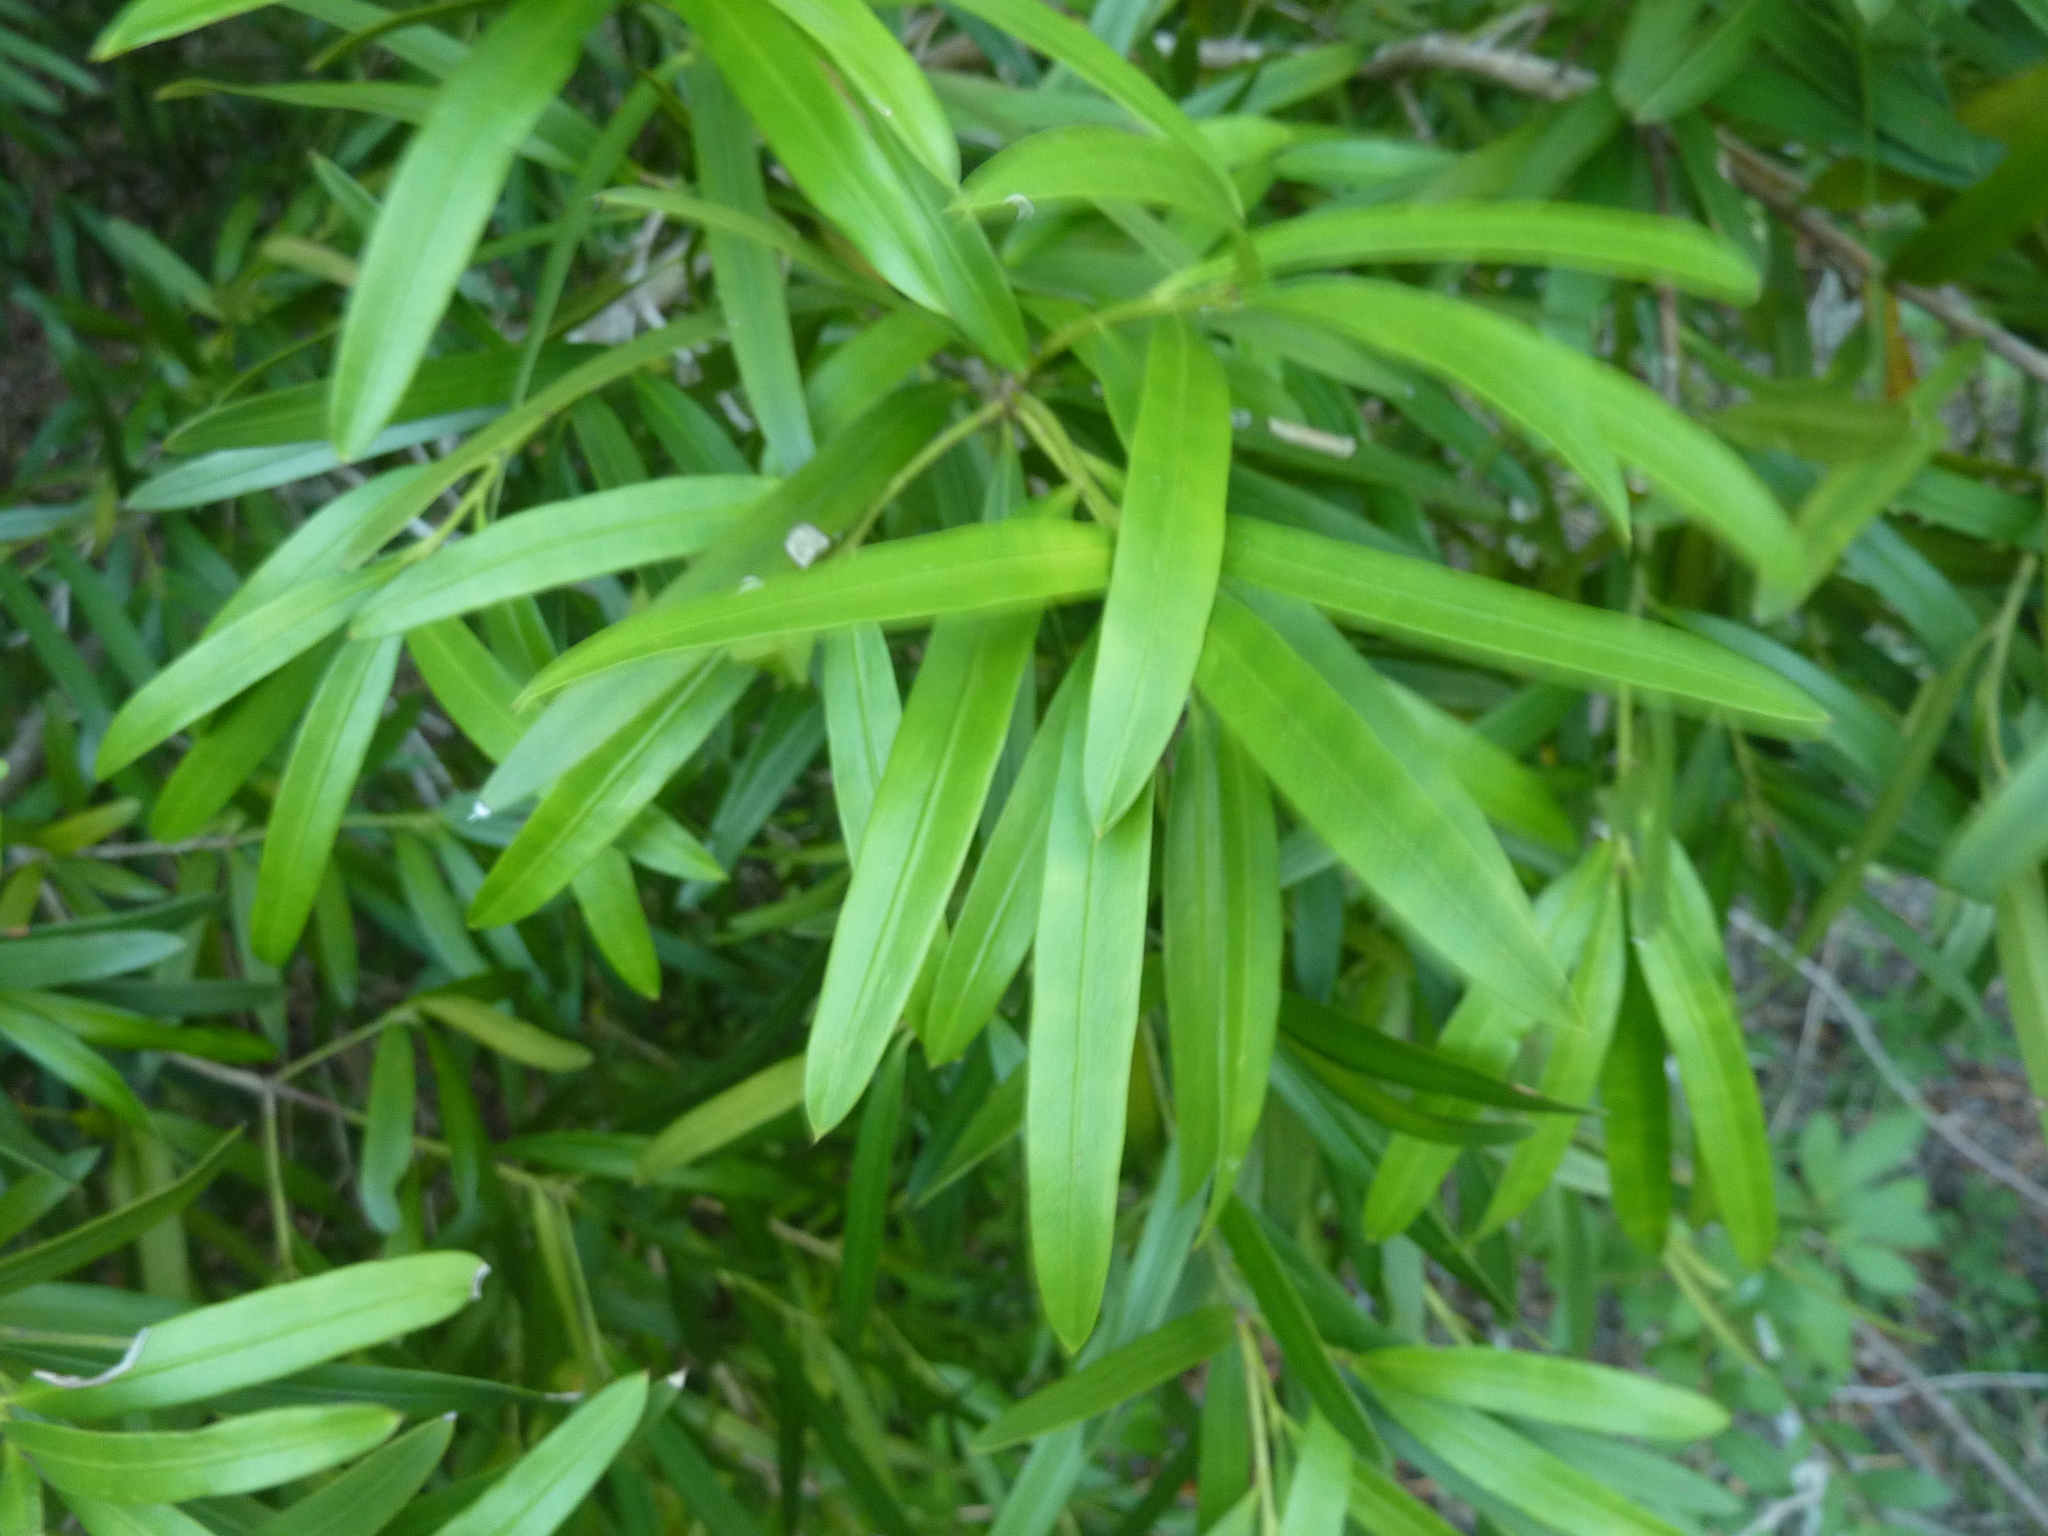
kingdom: Plantae
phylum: Tracheophyta
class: Pinopsida
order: Pinales
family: Podocarpaceae
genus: Podocarpus
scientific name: Podocarpus elatus
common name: Plum pine
